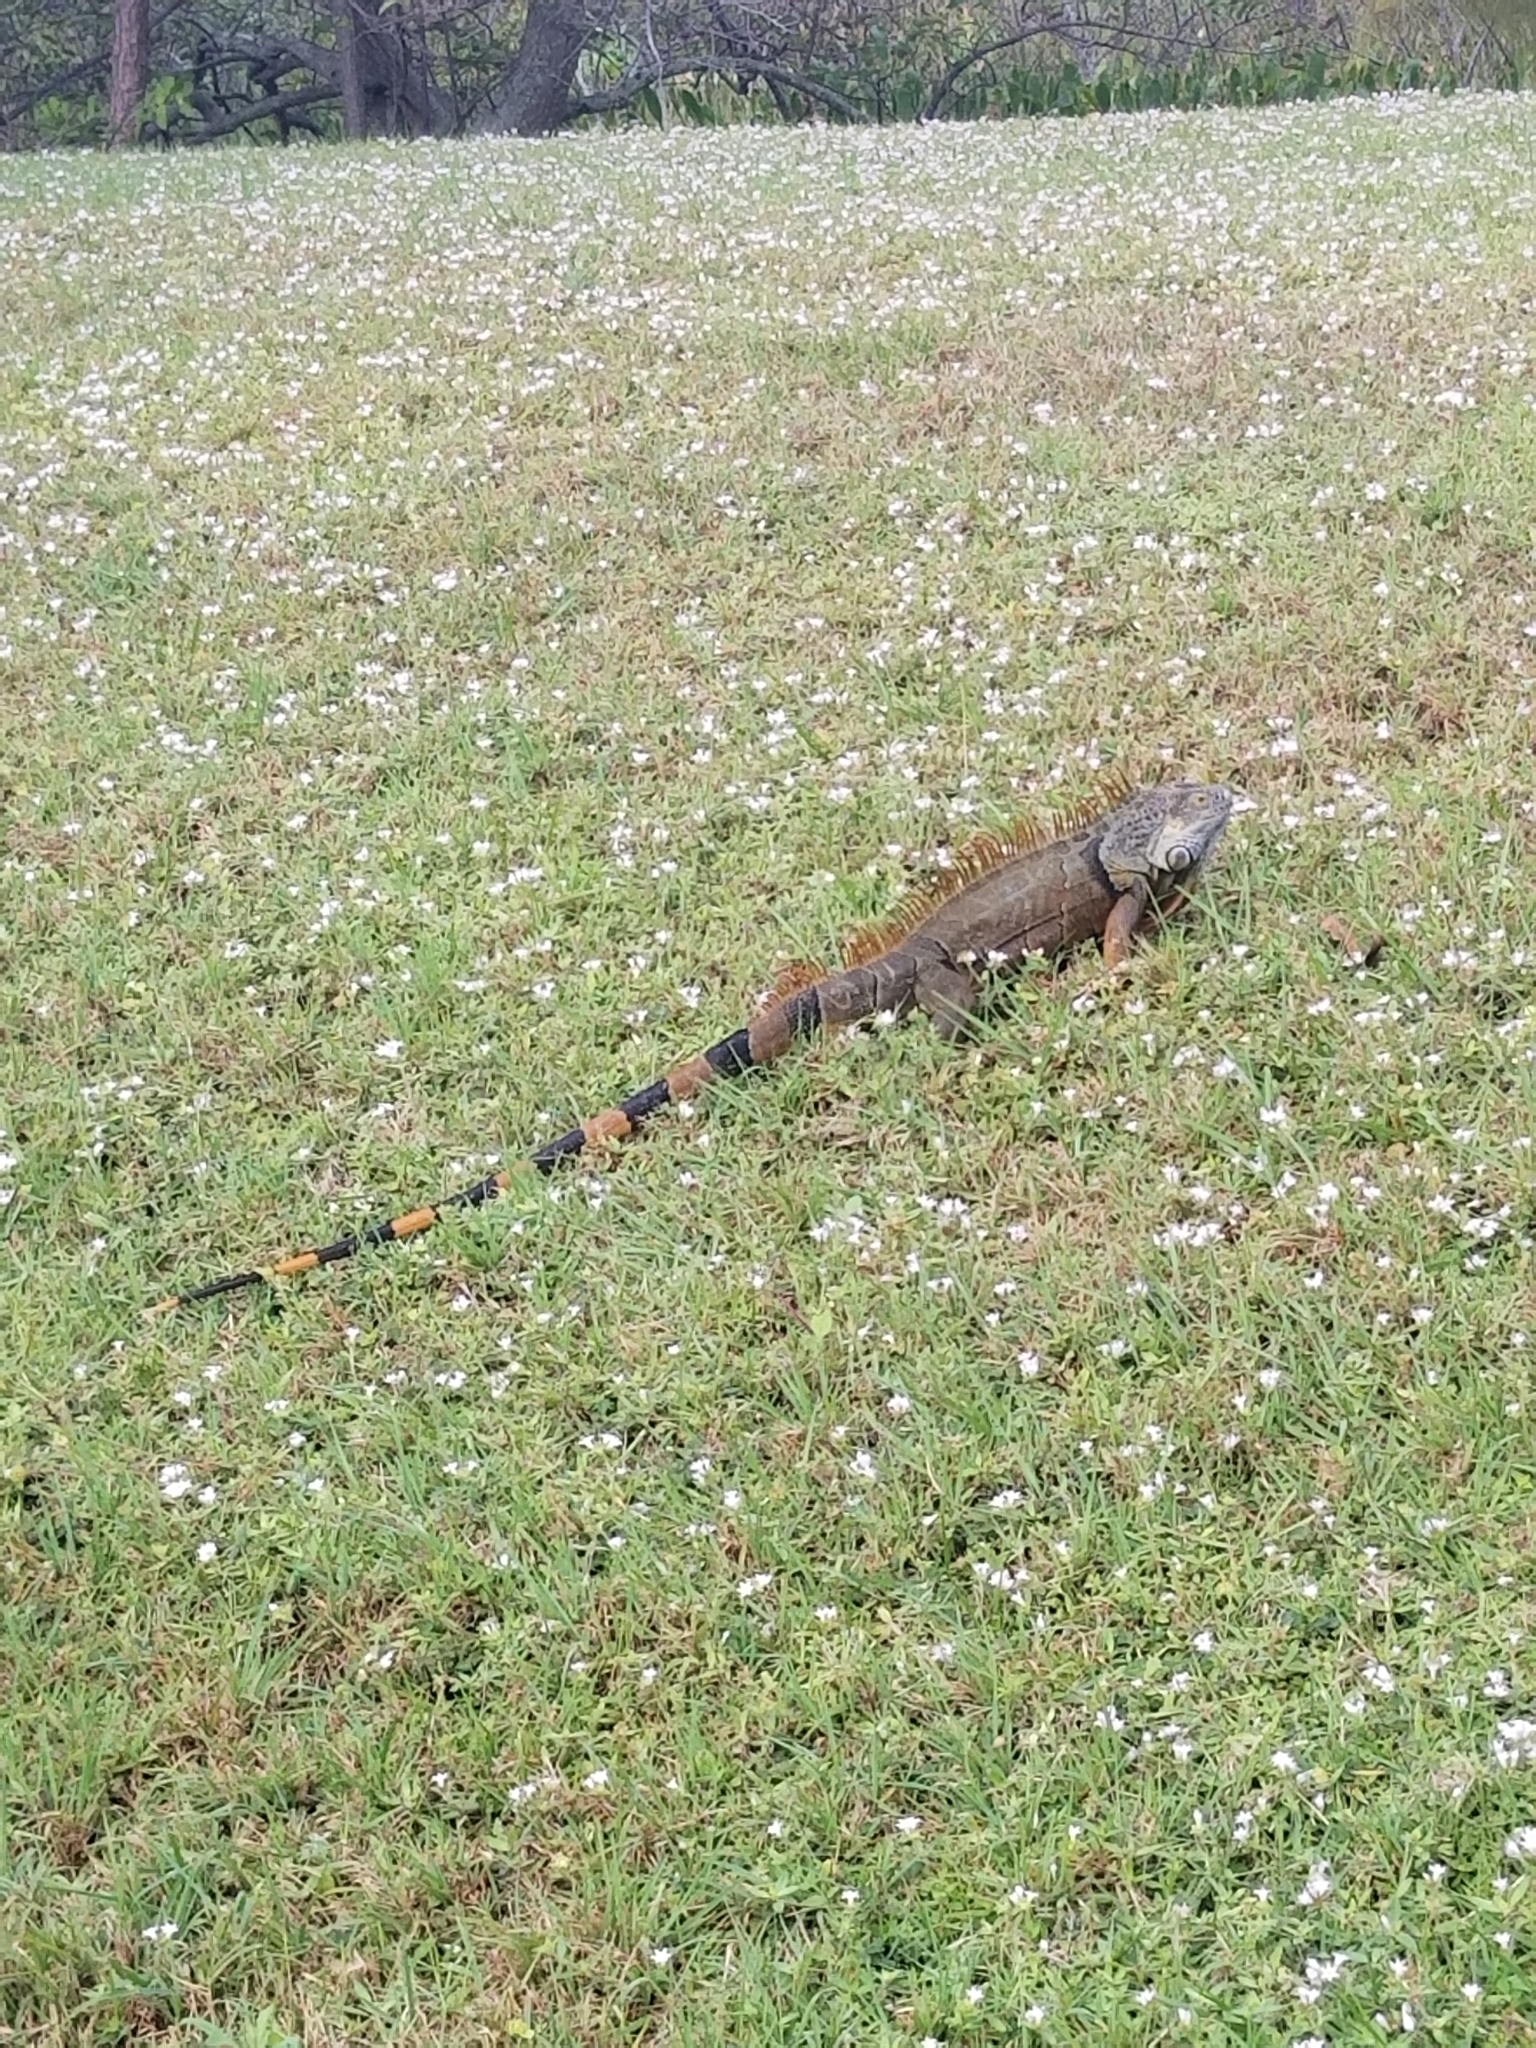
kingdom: Animalia
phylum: Chordata
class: Squamata
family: Iguanidae
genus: Iguana
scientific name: Iguana iguana
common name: Green iguana
